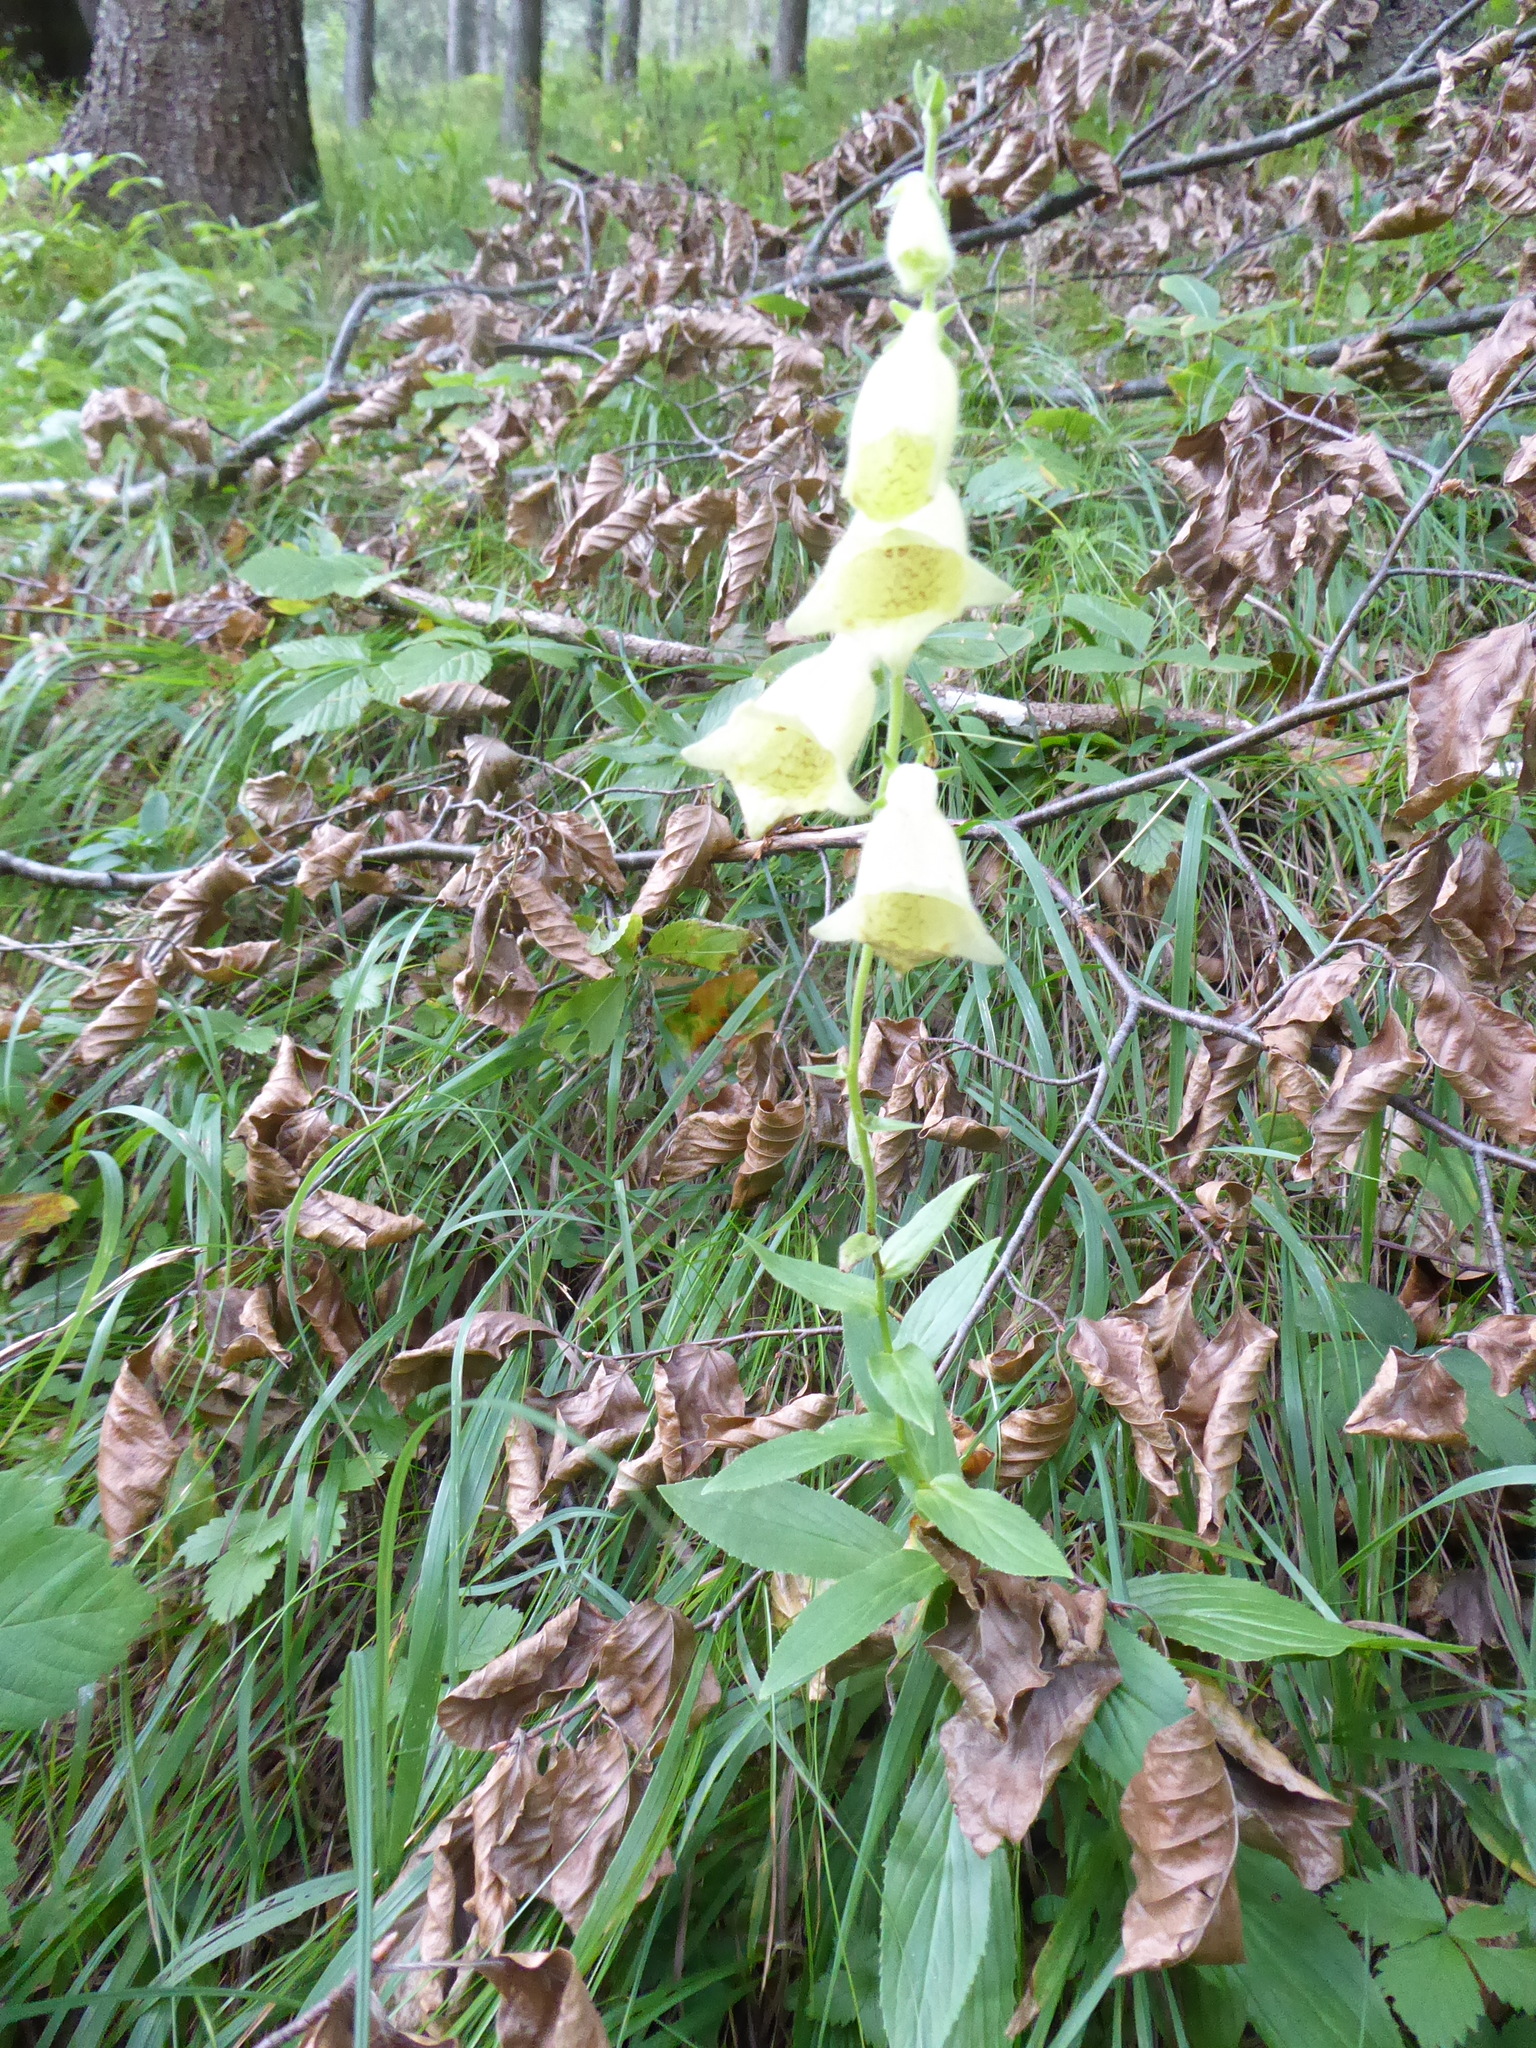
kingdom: Plantae
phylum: Tracheophyta
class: Magnoliopsida
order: Lamiales
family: Plantaginaceae
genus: Digitalis
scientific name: Digitalis grandiflora
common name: Yellow foxglove
